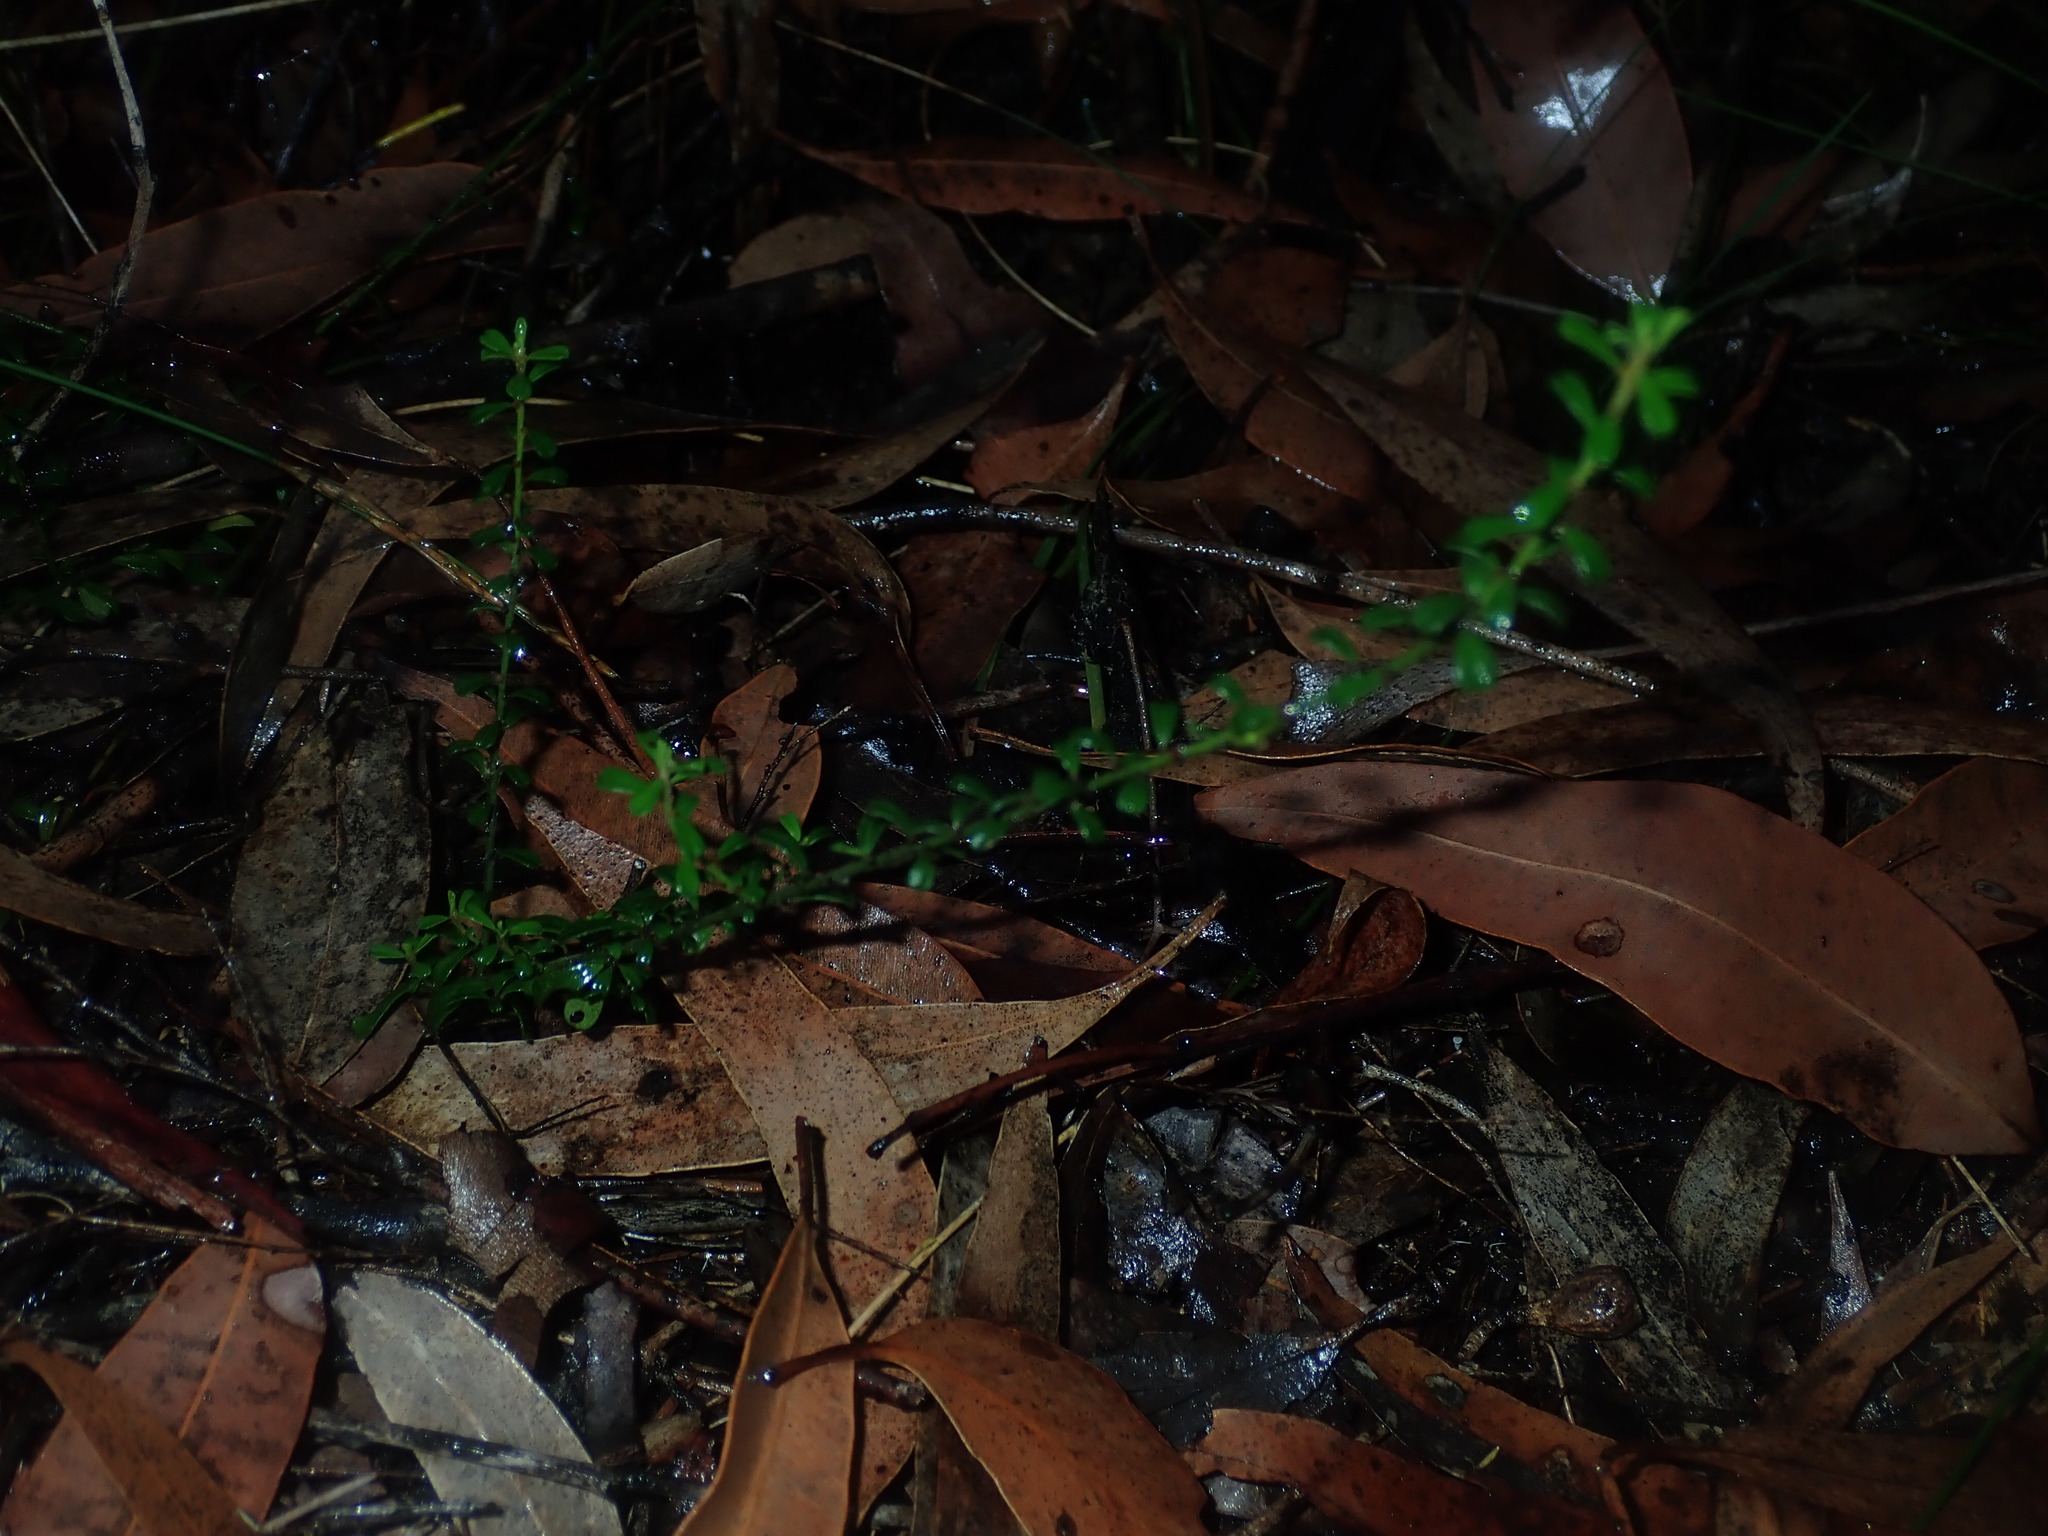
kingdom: Plantae
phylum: Tracheophyta
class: Magnoliopsida
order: Malpighiales
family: Phyllanthaceae
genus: Phyllanthus
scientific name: Phyllanthus hirtellus
